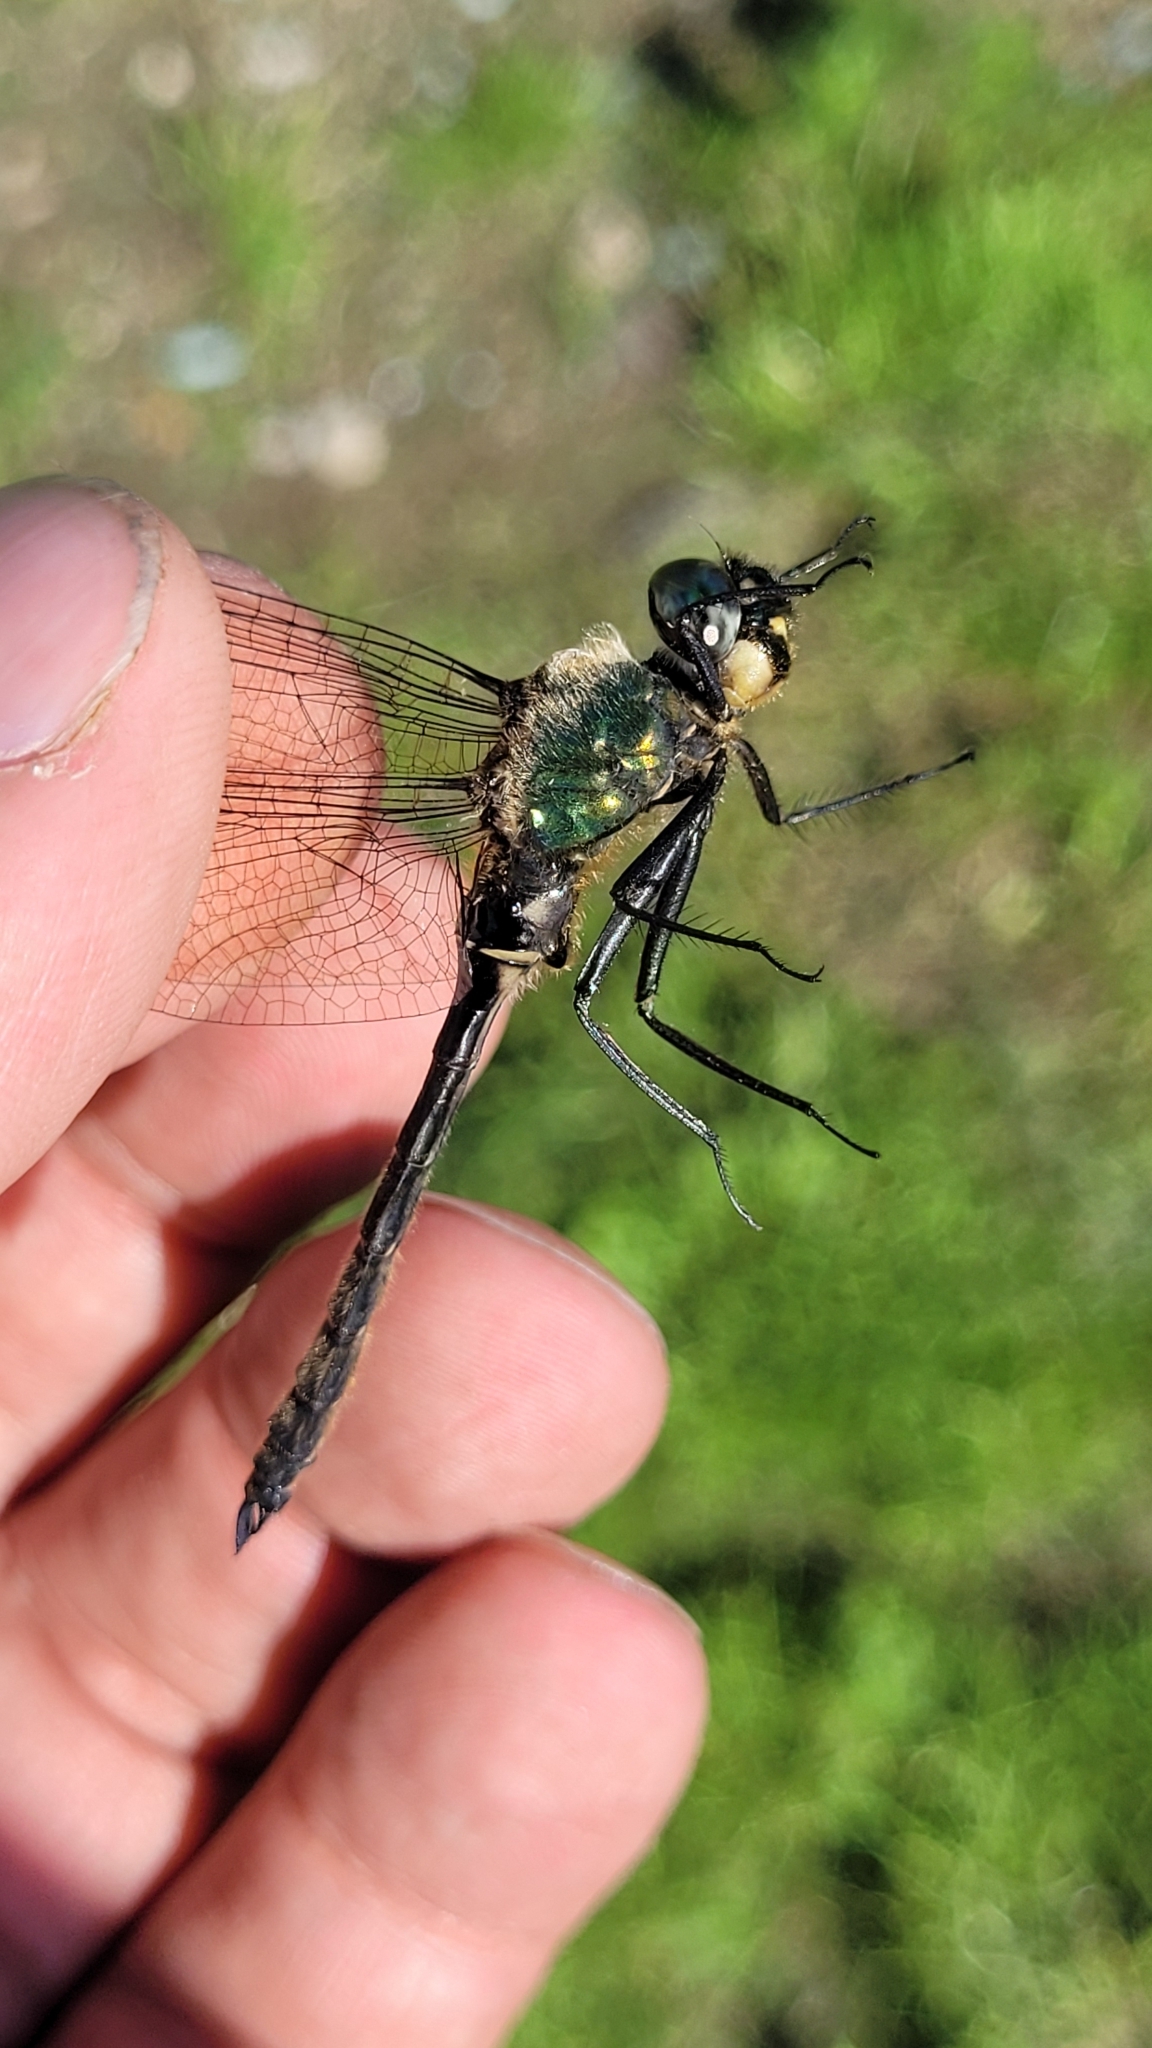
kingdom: Animalia
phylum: Arthropoda
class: Insecta
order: Odonata
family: Corduliidae
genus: Somatochlora
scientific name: Somatochlora uchidai
